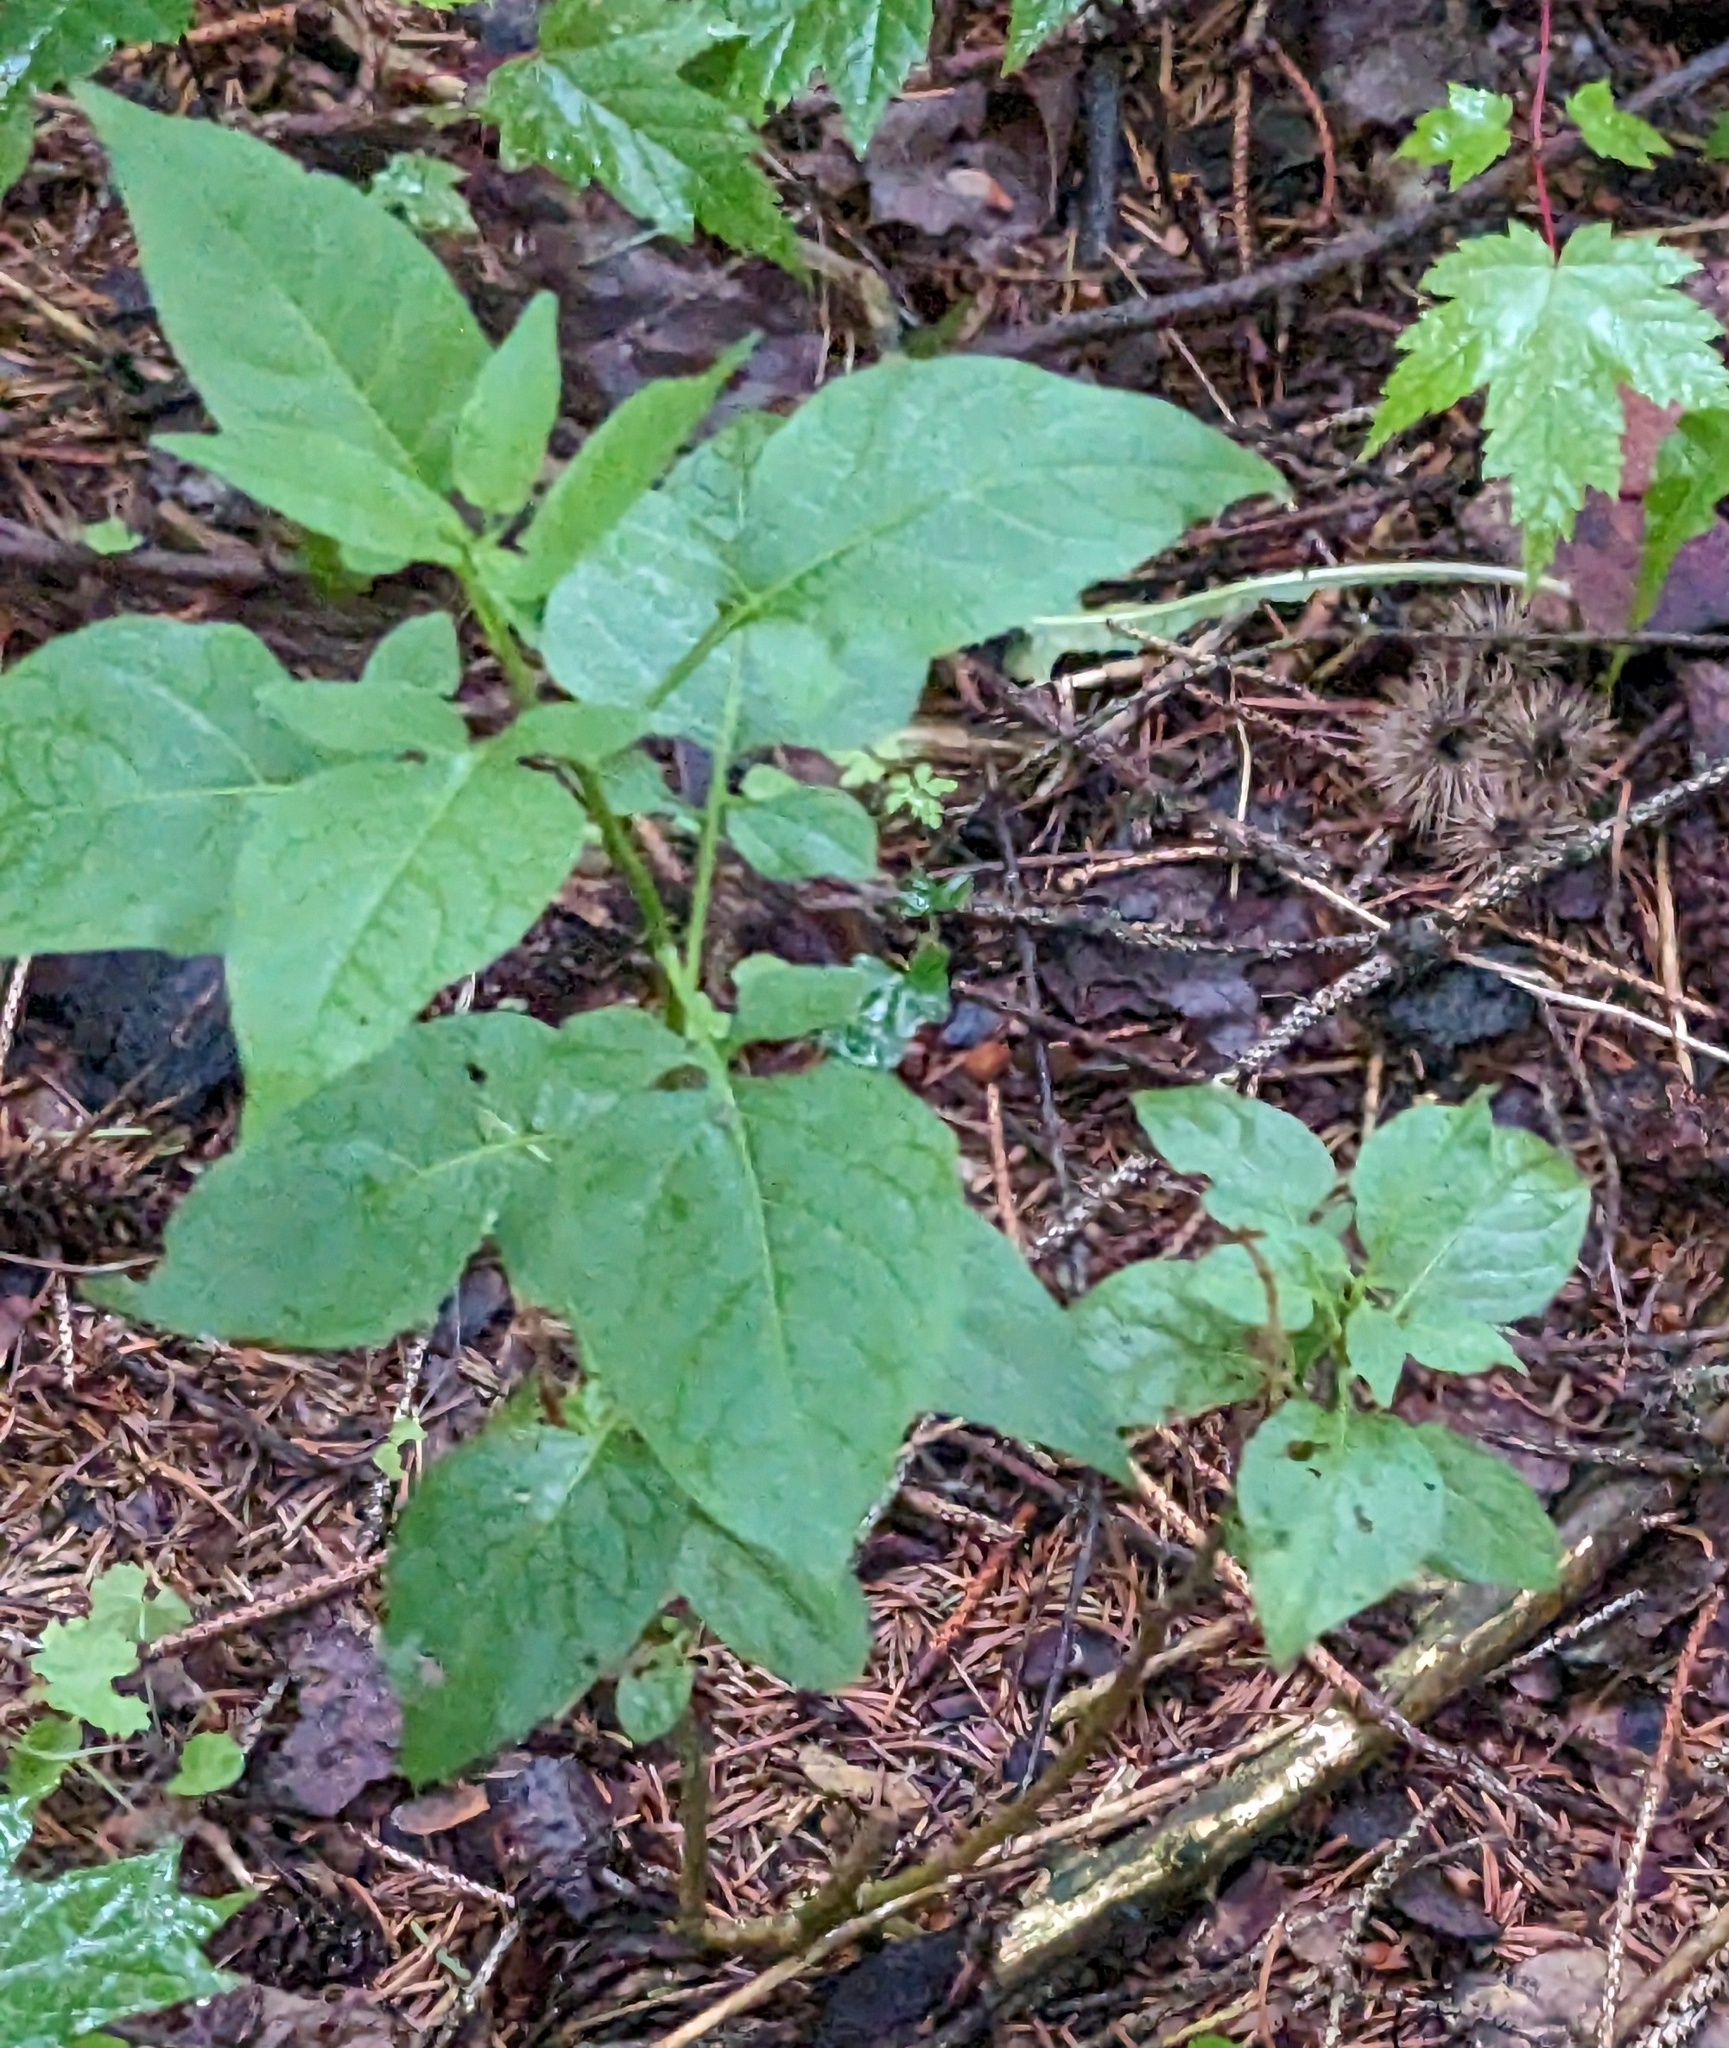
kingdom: Plantae
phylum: Tracheophyta
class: Magnoliopsida
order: Solanales
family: Solanaceae
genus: Solanum
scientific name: Solanum dulcamara
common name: Climbing nightshade
